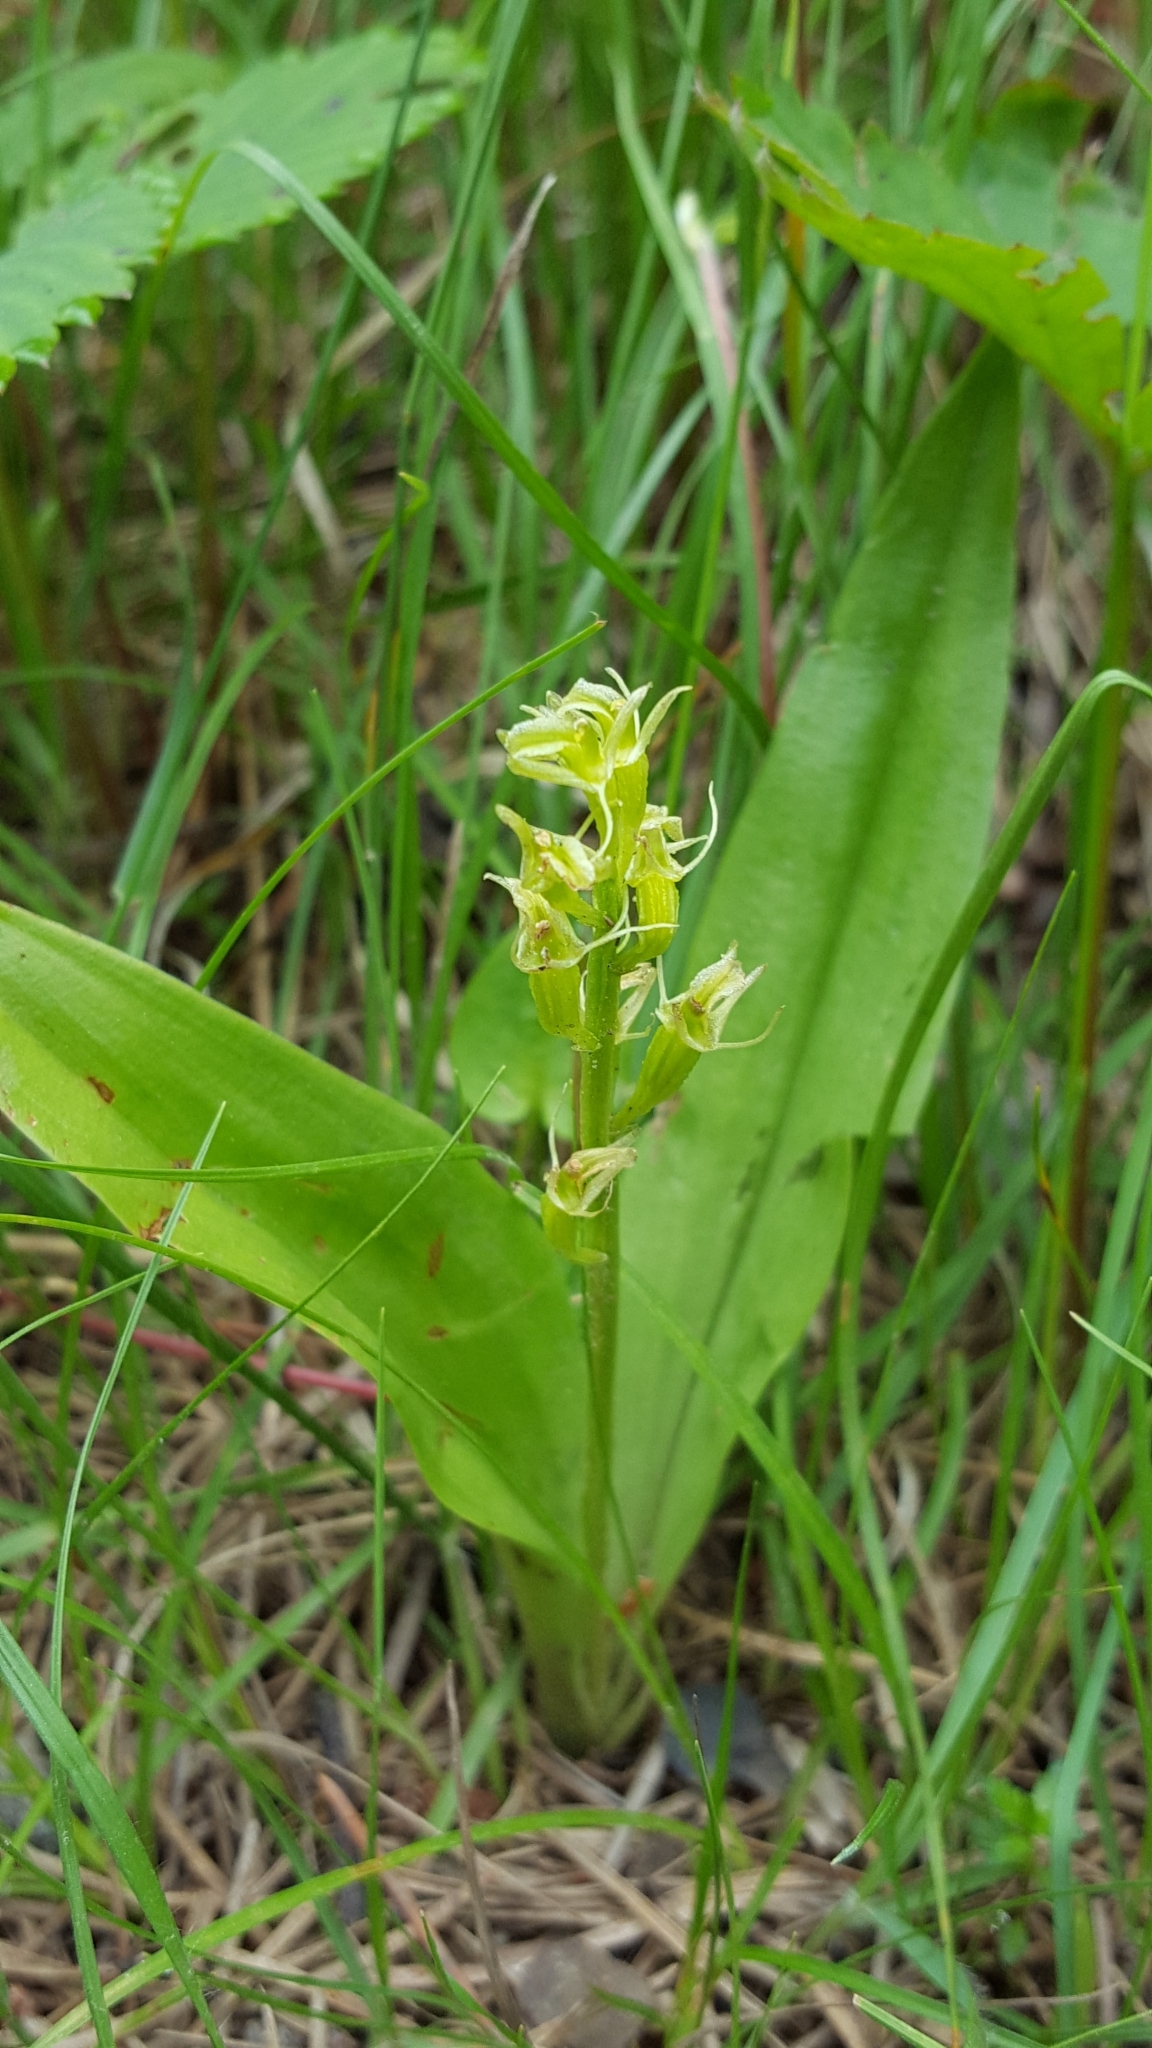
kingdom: Animalia
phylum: Arthropoda
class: Insecta
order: Coleoptera
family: Curculionidae
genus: Liparis
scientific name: Liparis loeselii
